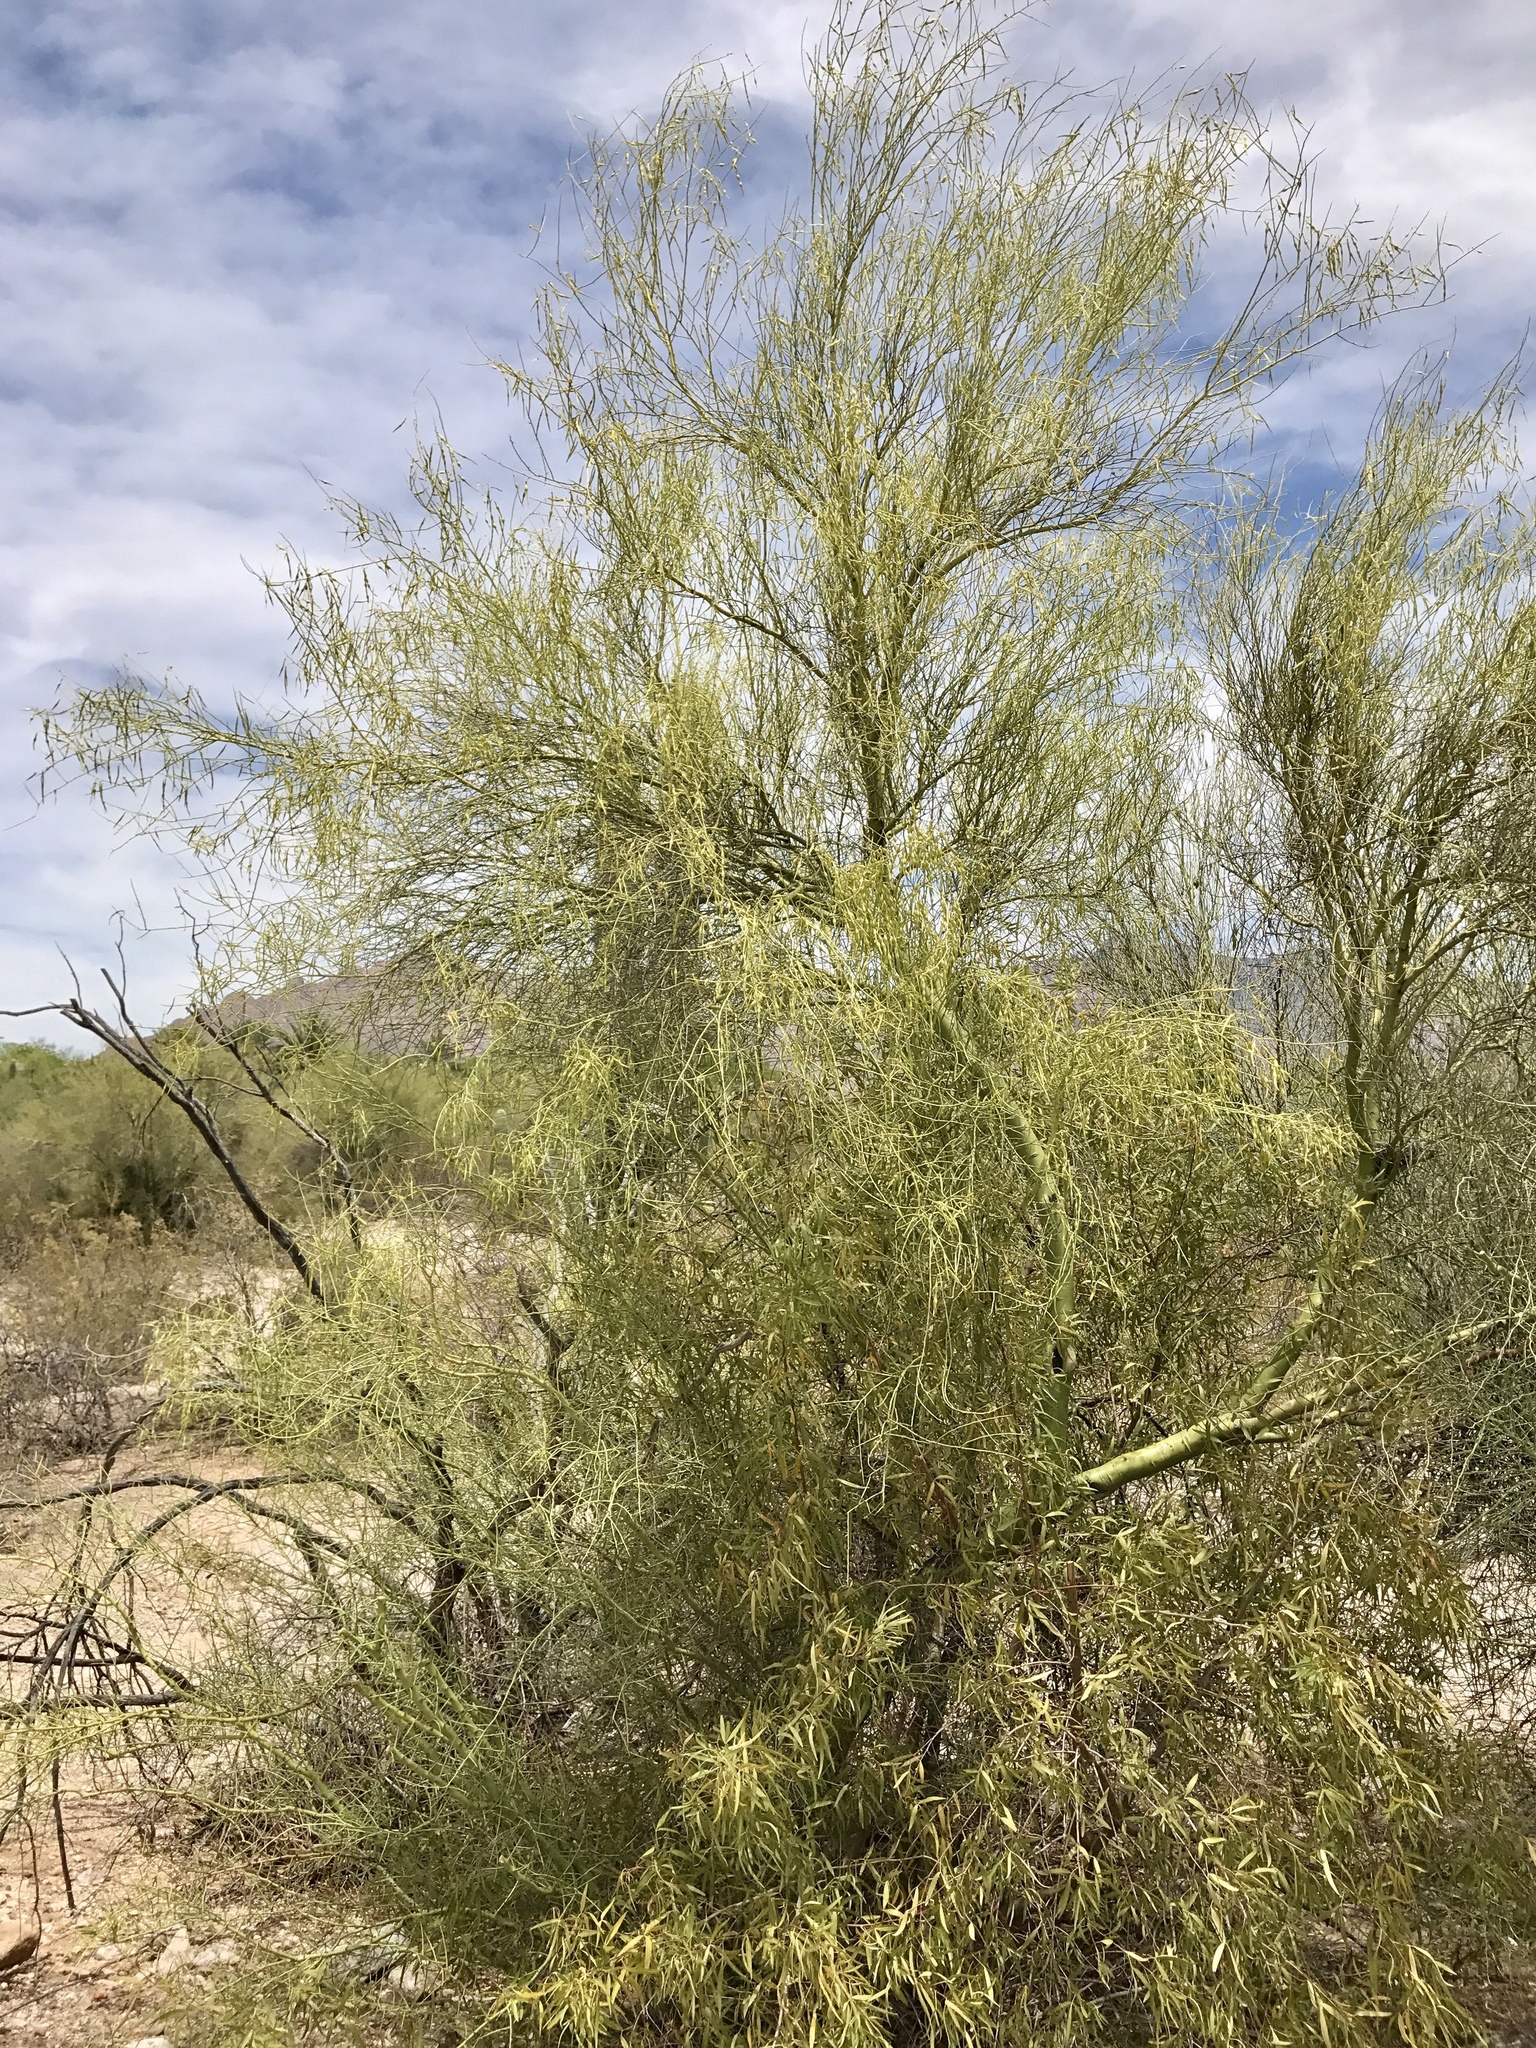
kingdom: Plantae
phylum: Tracheophyta
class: Magnoliopsida
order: Fabales
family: Fabaceae
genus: Parkinsonia
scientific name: Parkinsonia microphylla
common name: Yellow paloverde
